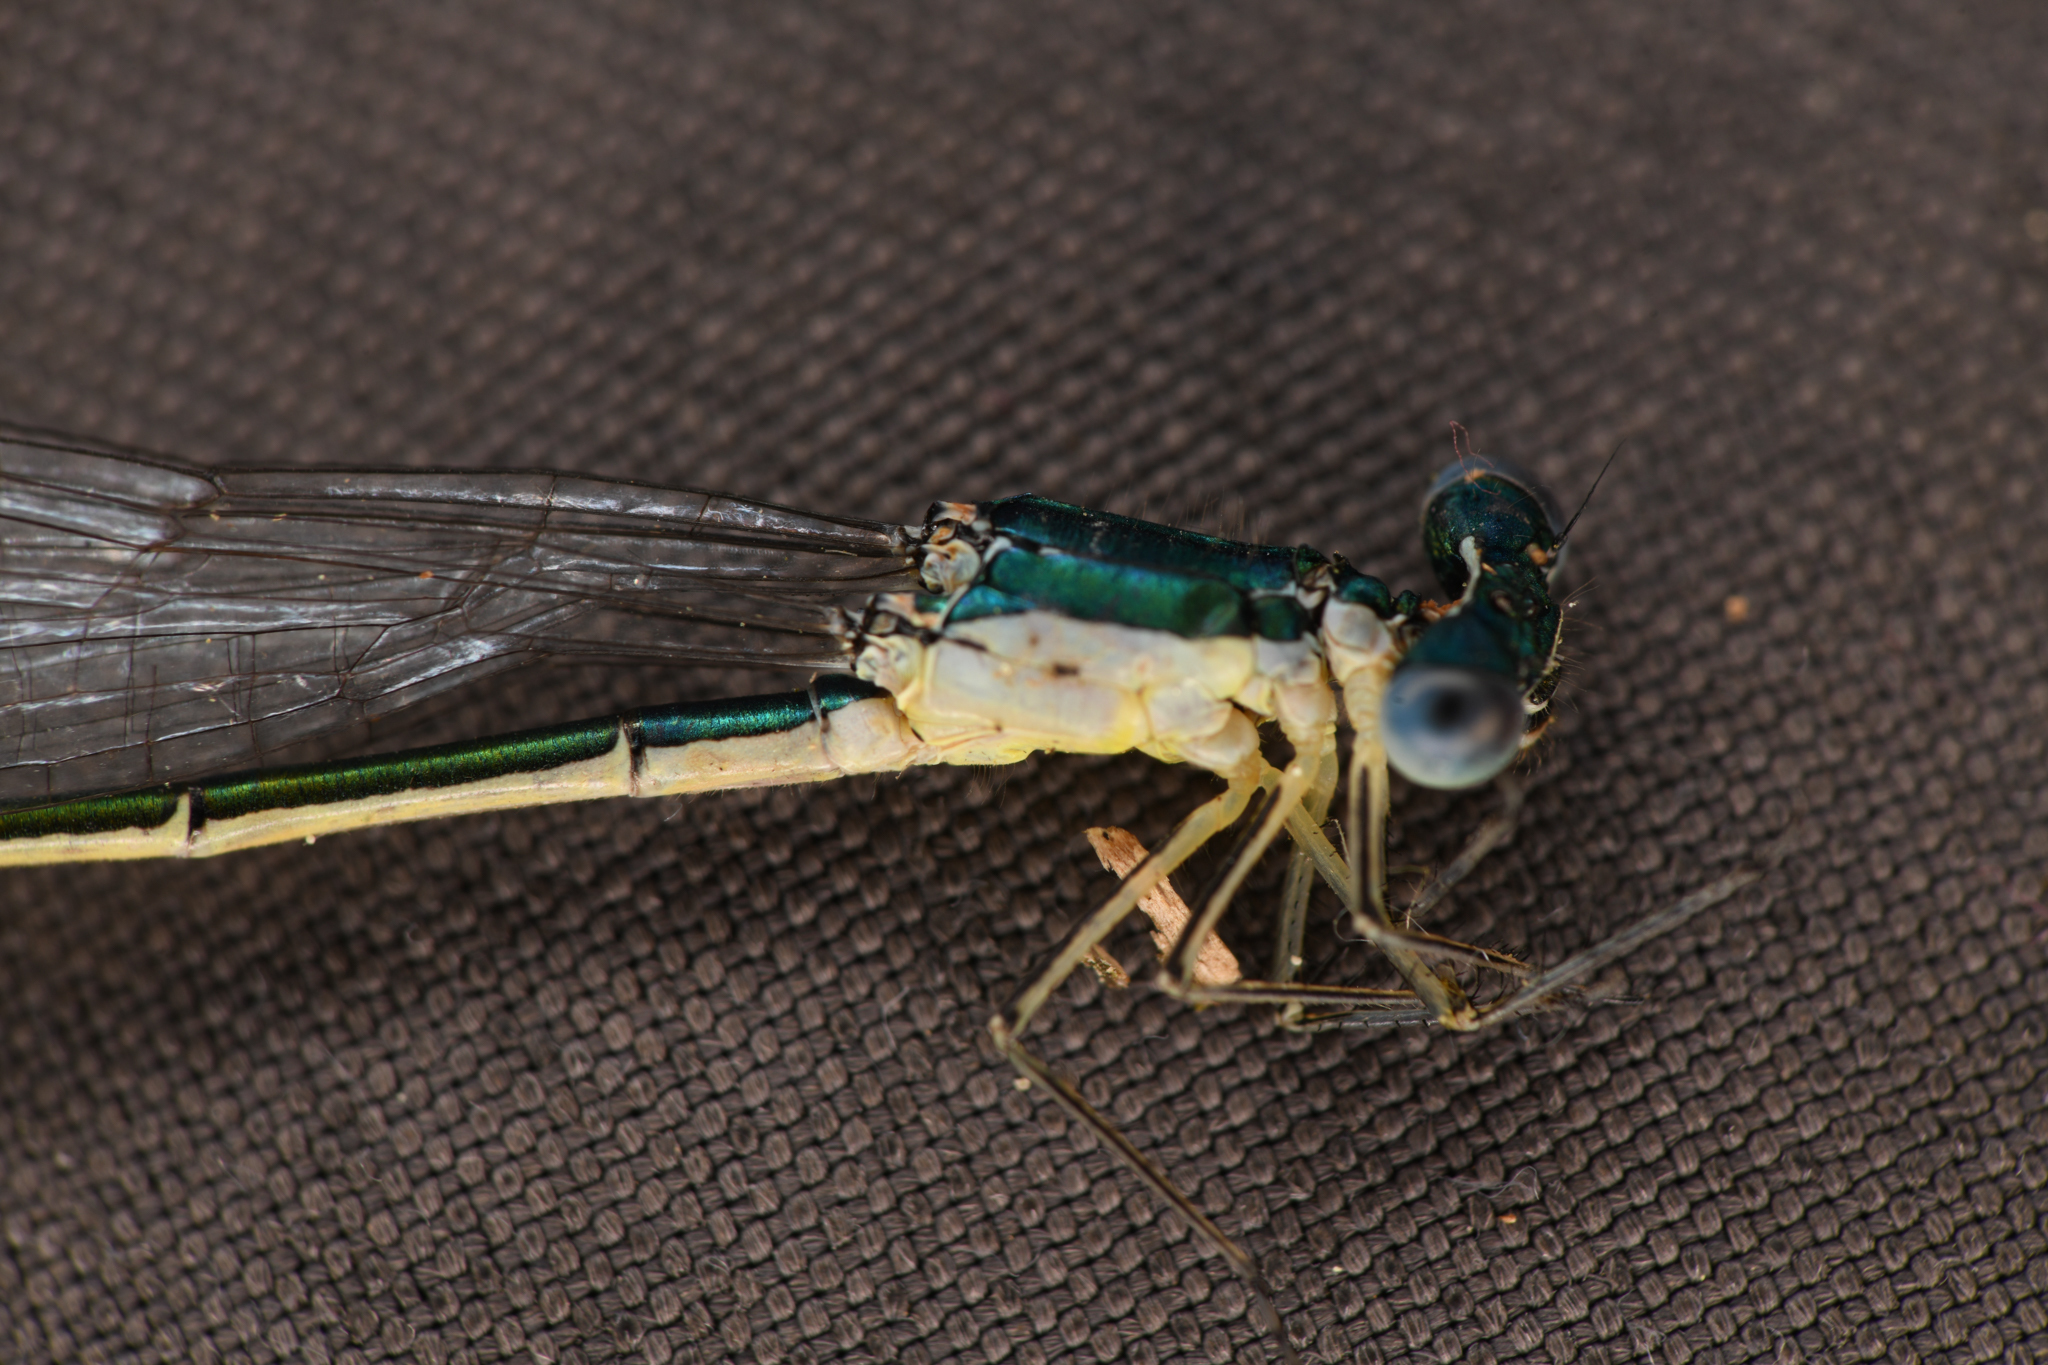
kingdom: Animalia
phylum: Arthropoda
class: Insecta
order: Odonata
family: Coenagrionidae
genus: Nehalennia
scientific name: Nehalennia irene
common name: Sedge sprite
